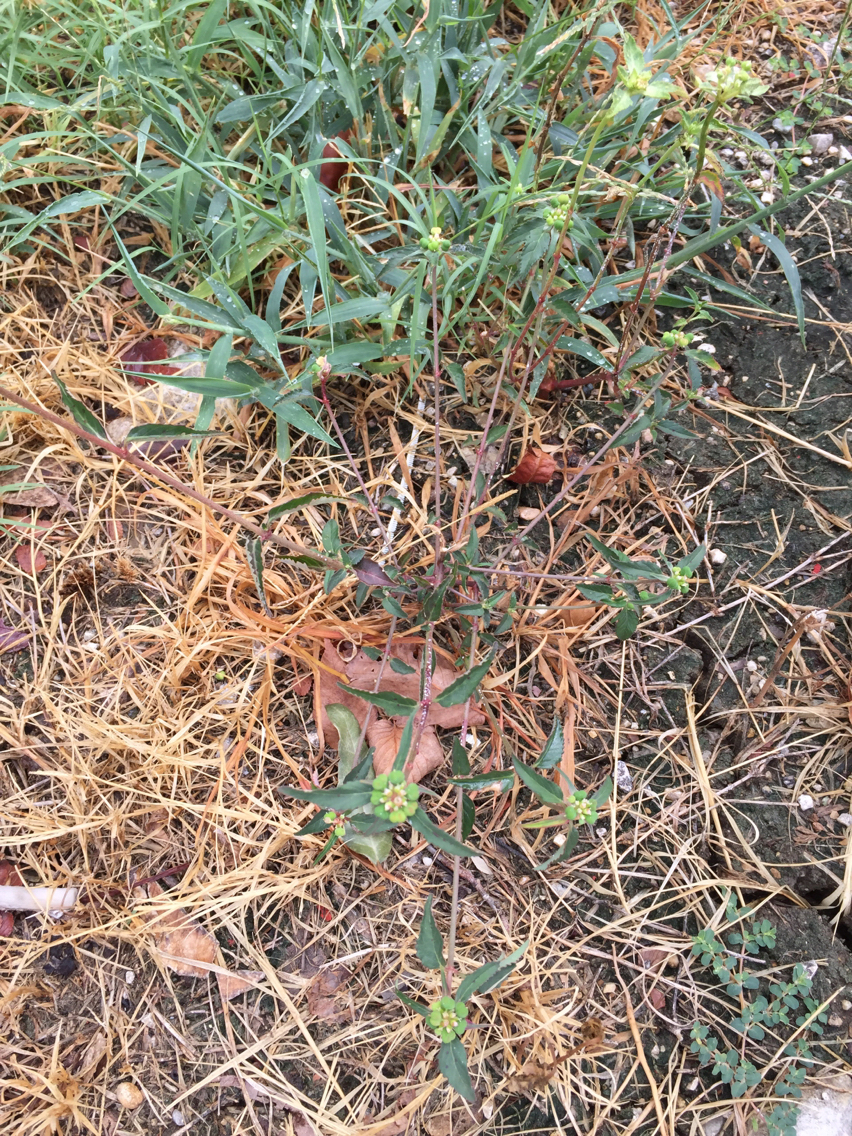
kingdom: Plantae
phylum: Tracheophyta
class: Magnoliopsida
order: Malpighiales
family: Euphorbiaceae
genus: Euphorbia
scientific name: Euphorbia dentata
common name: Dentate spurge
